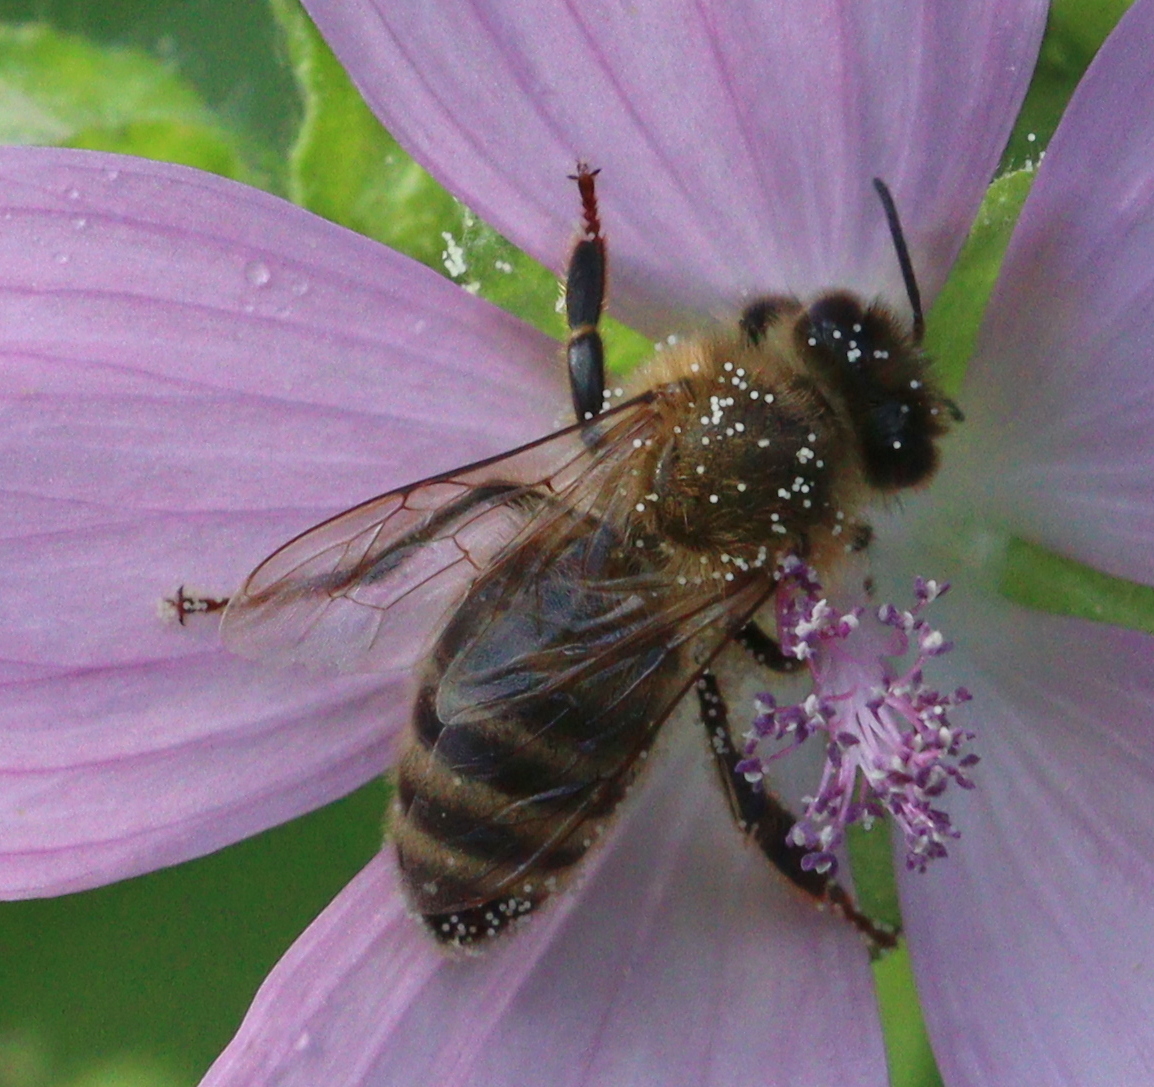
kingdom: Animalia
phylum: Arthropoda
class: Insecta
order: Hymenoptera
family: Apidae
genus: Apis
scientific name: Apis mellifera
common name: Honey bee
